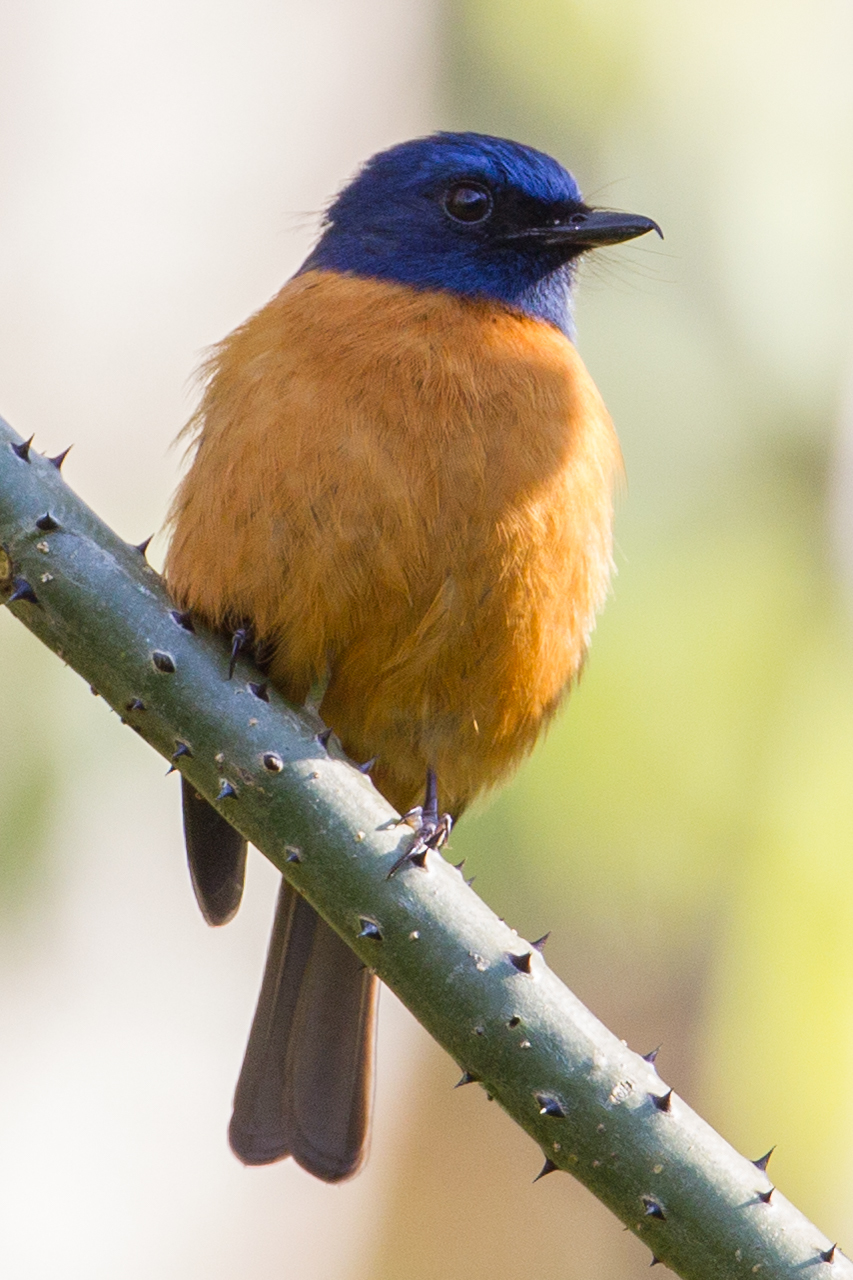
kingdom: Animalia
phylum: Chordata
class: Aves
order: Passeriformes
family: Muscicapidae
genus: Cyornis
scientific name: Cyornis hoevelli
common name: Blue-fronted blue flycatcher
